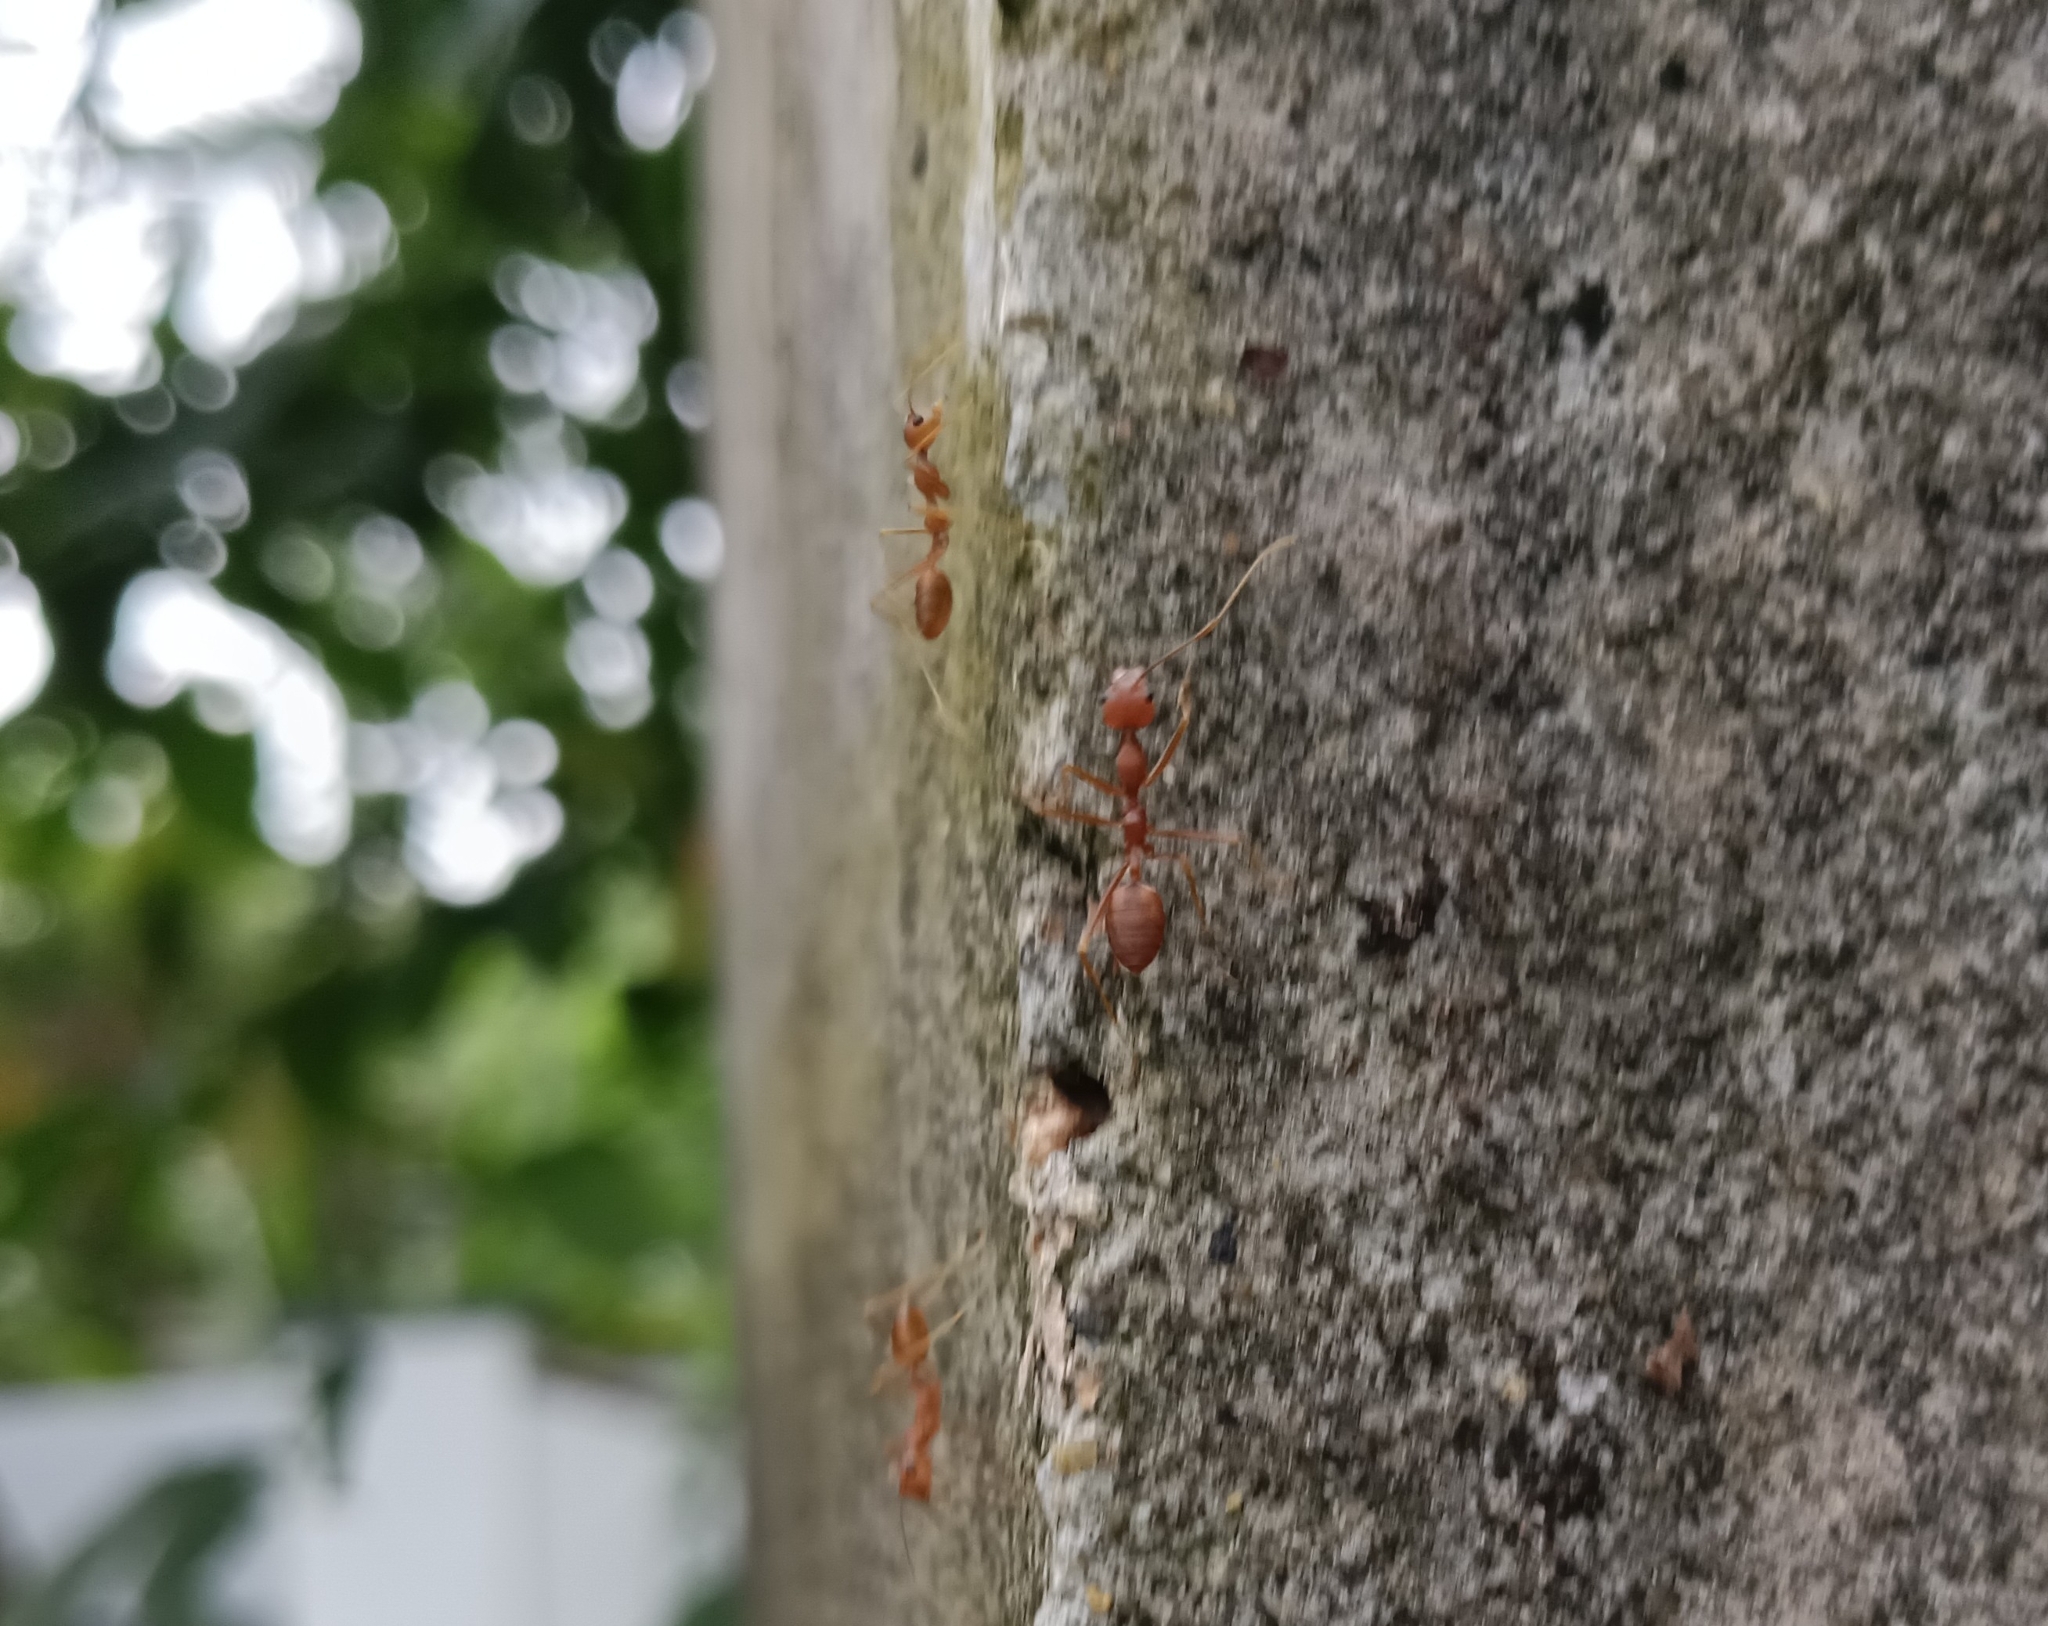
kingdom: Animalia
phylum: Arthropoda
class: Insecta
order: Hymenoptera
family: Formicidae
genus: Oecophylla
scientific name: Oecophylla smaragdina
